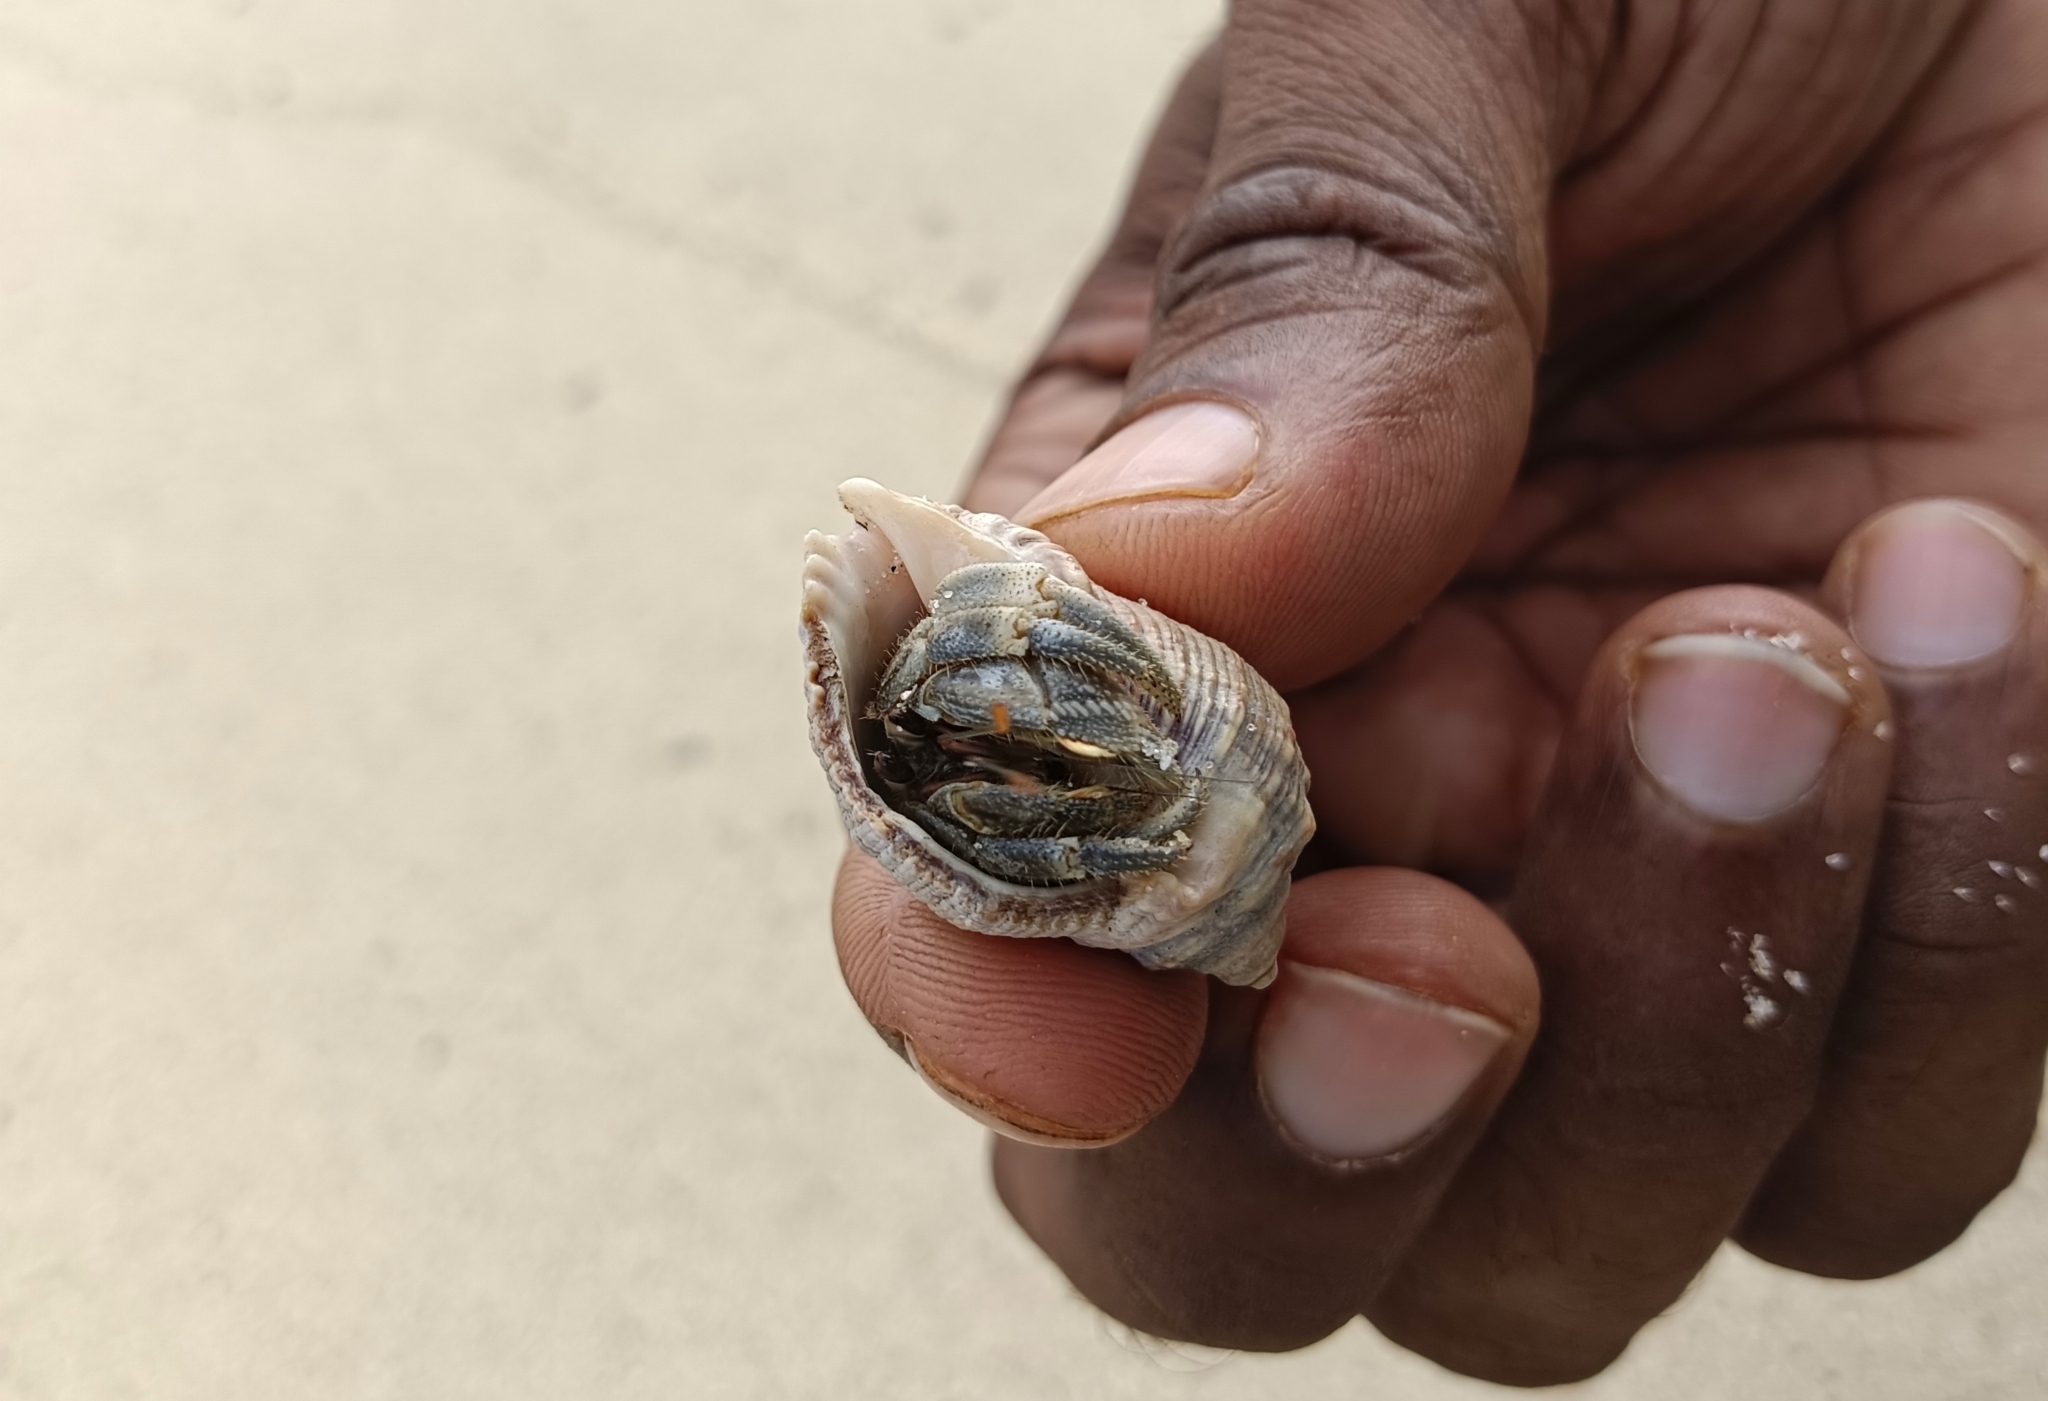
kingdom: Animalia
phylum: Arthropoda
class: Malacostraca
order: Decapoda
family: Coenobitidae
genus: Coenobita
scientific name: Coenobita rugosus
